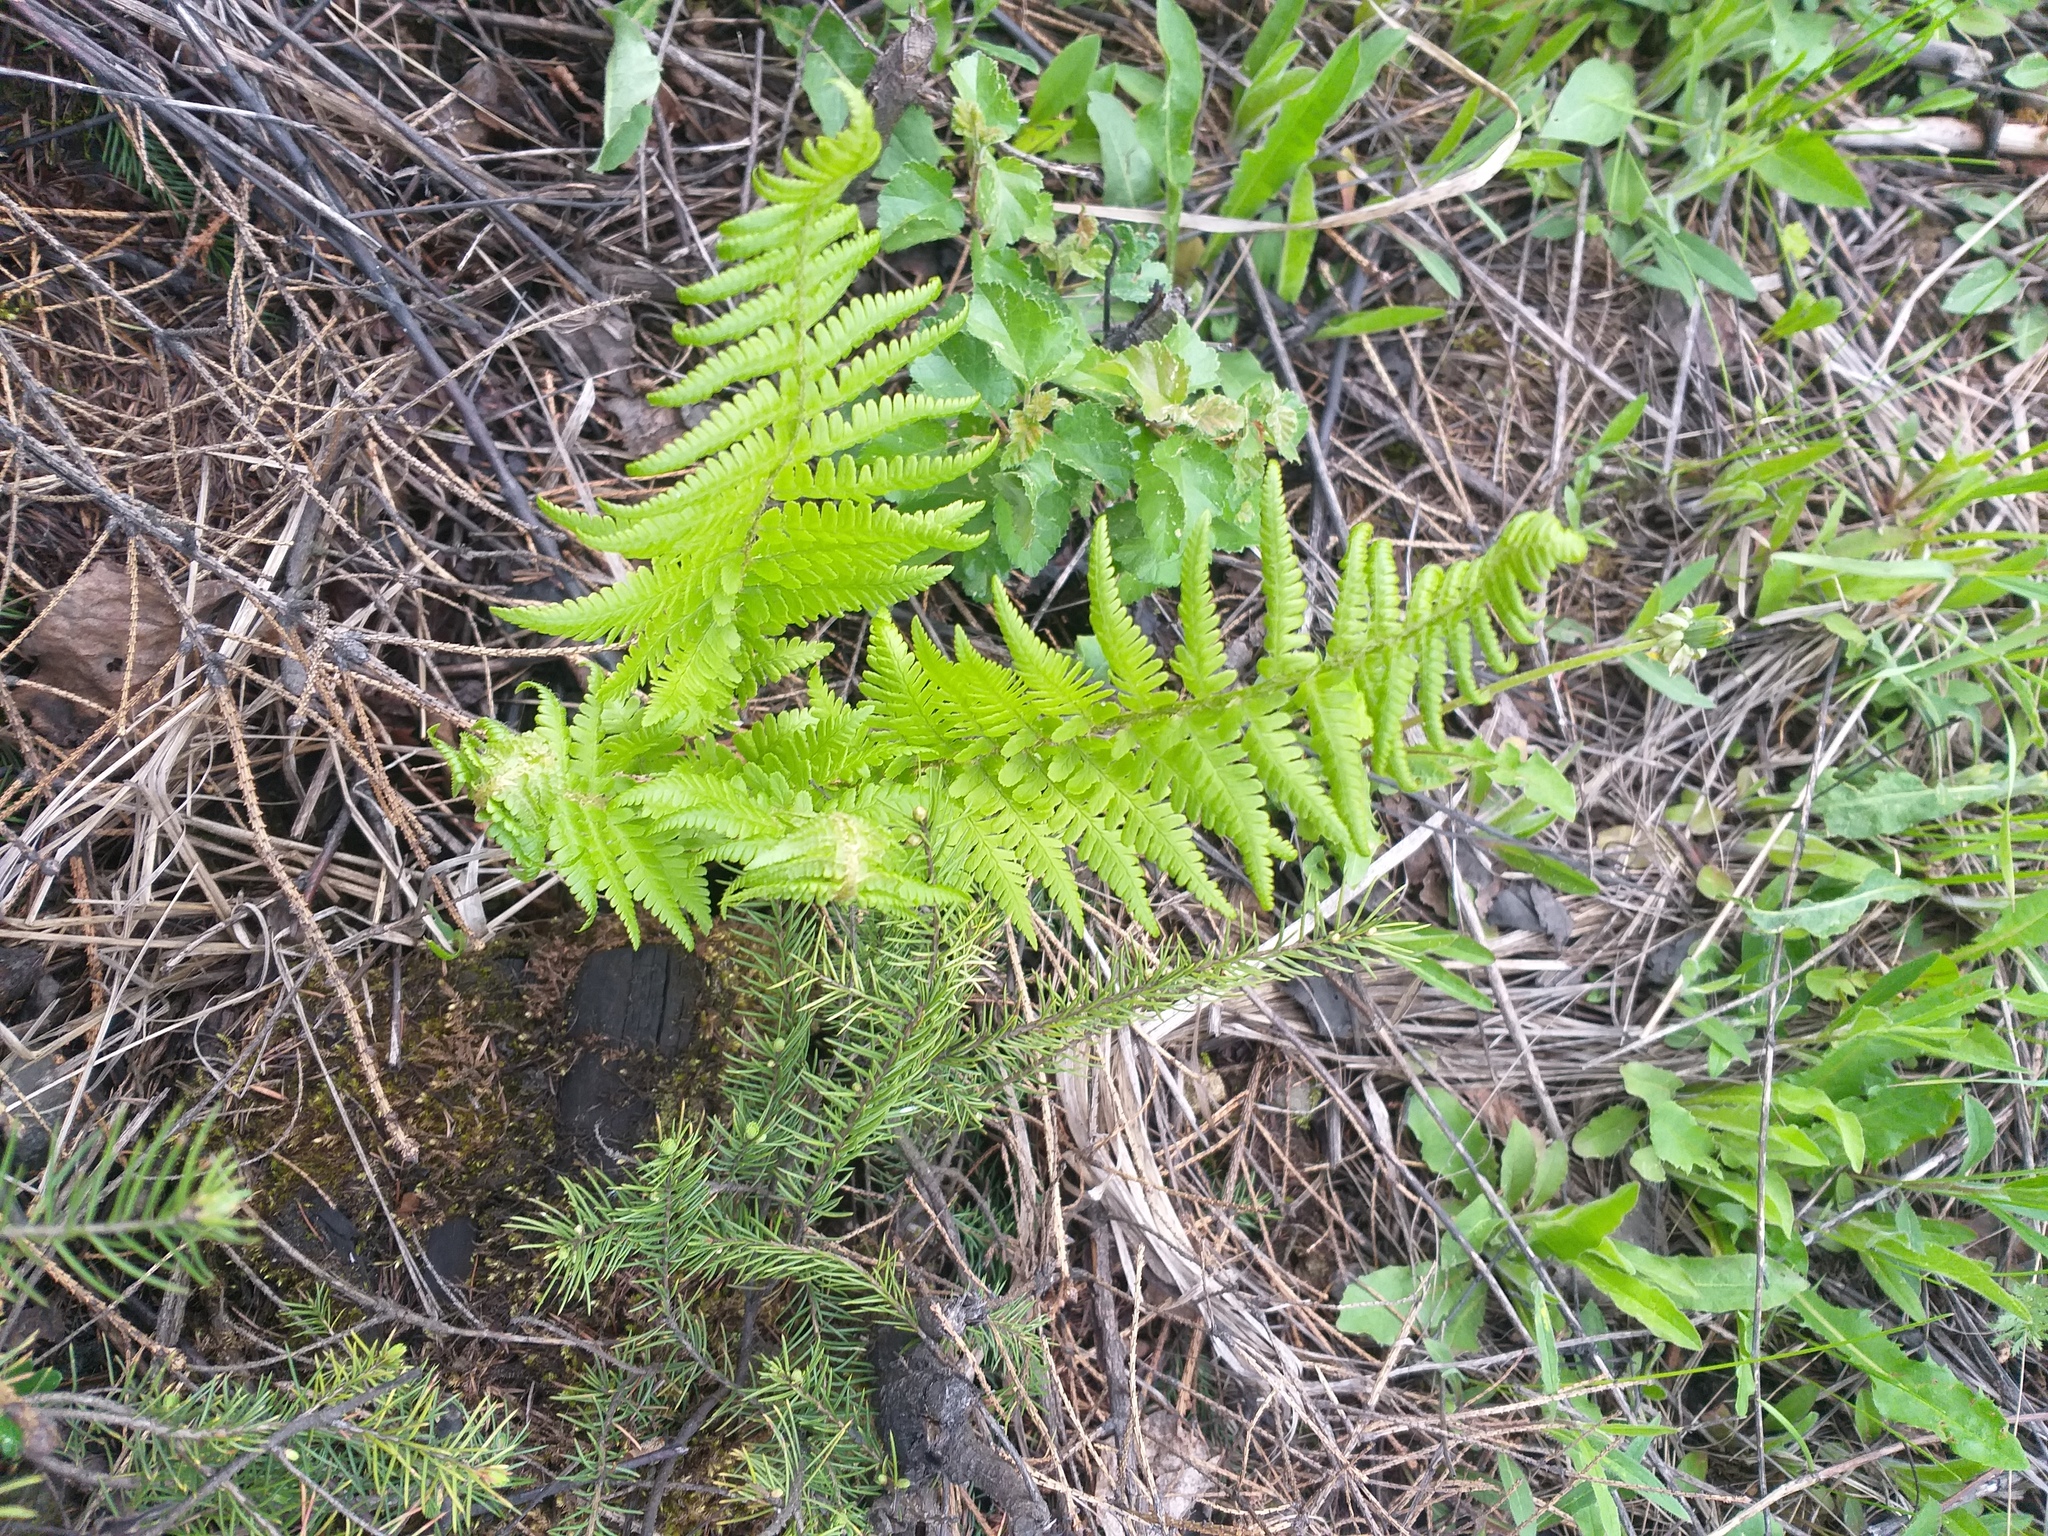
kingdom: Plantae
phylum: Tracheophyta
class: Polypodiopsida
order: Polypodiales
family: Dryopteridaceae
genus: Dryopteris
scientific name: Dryopteris filix-mas
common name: Male fern
